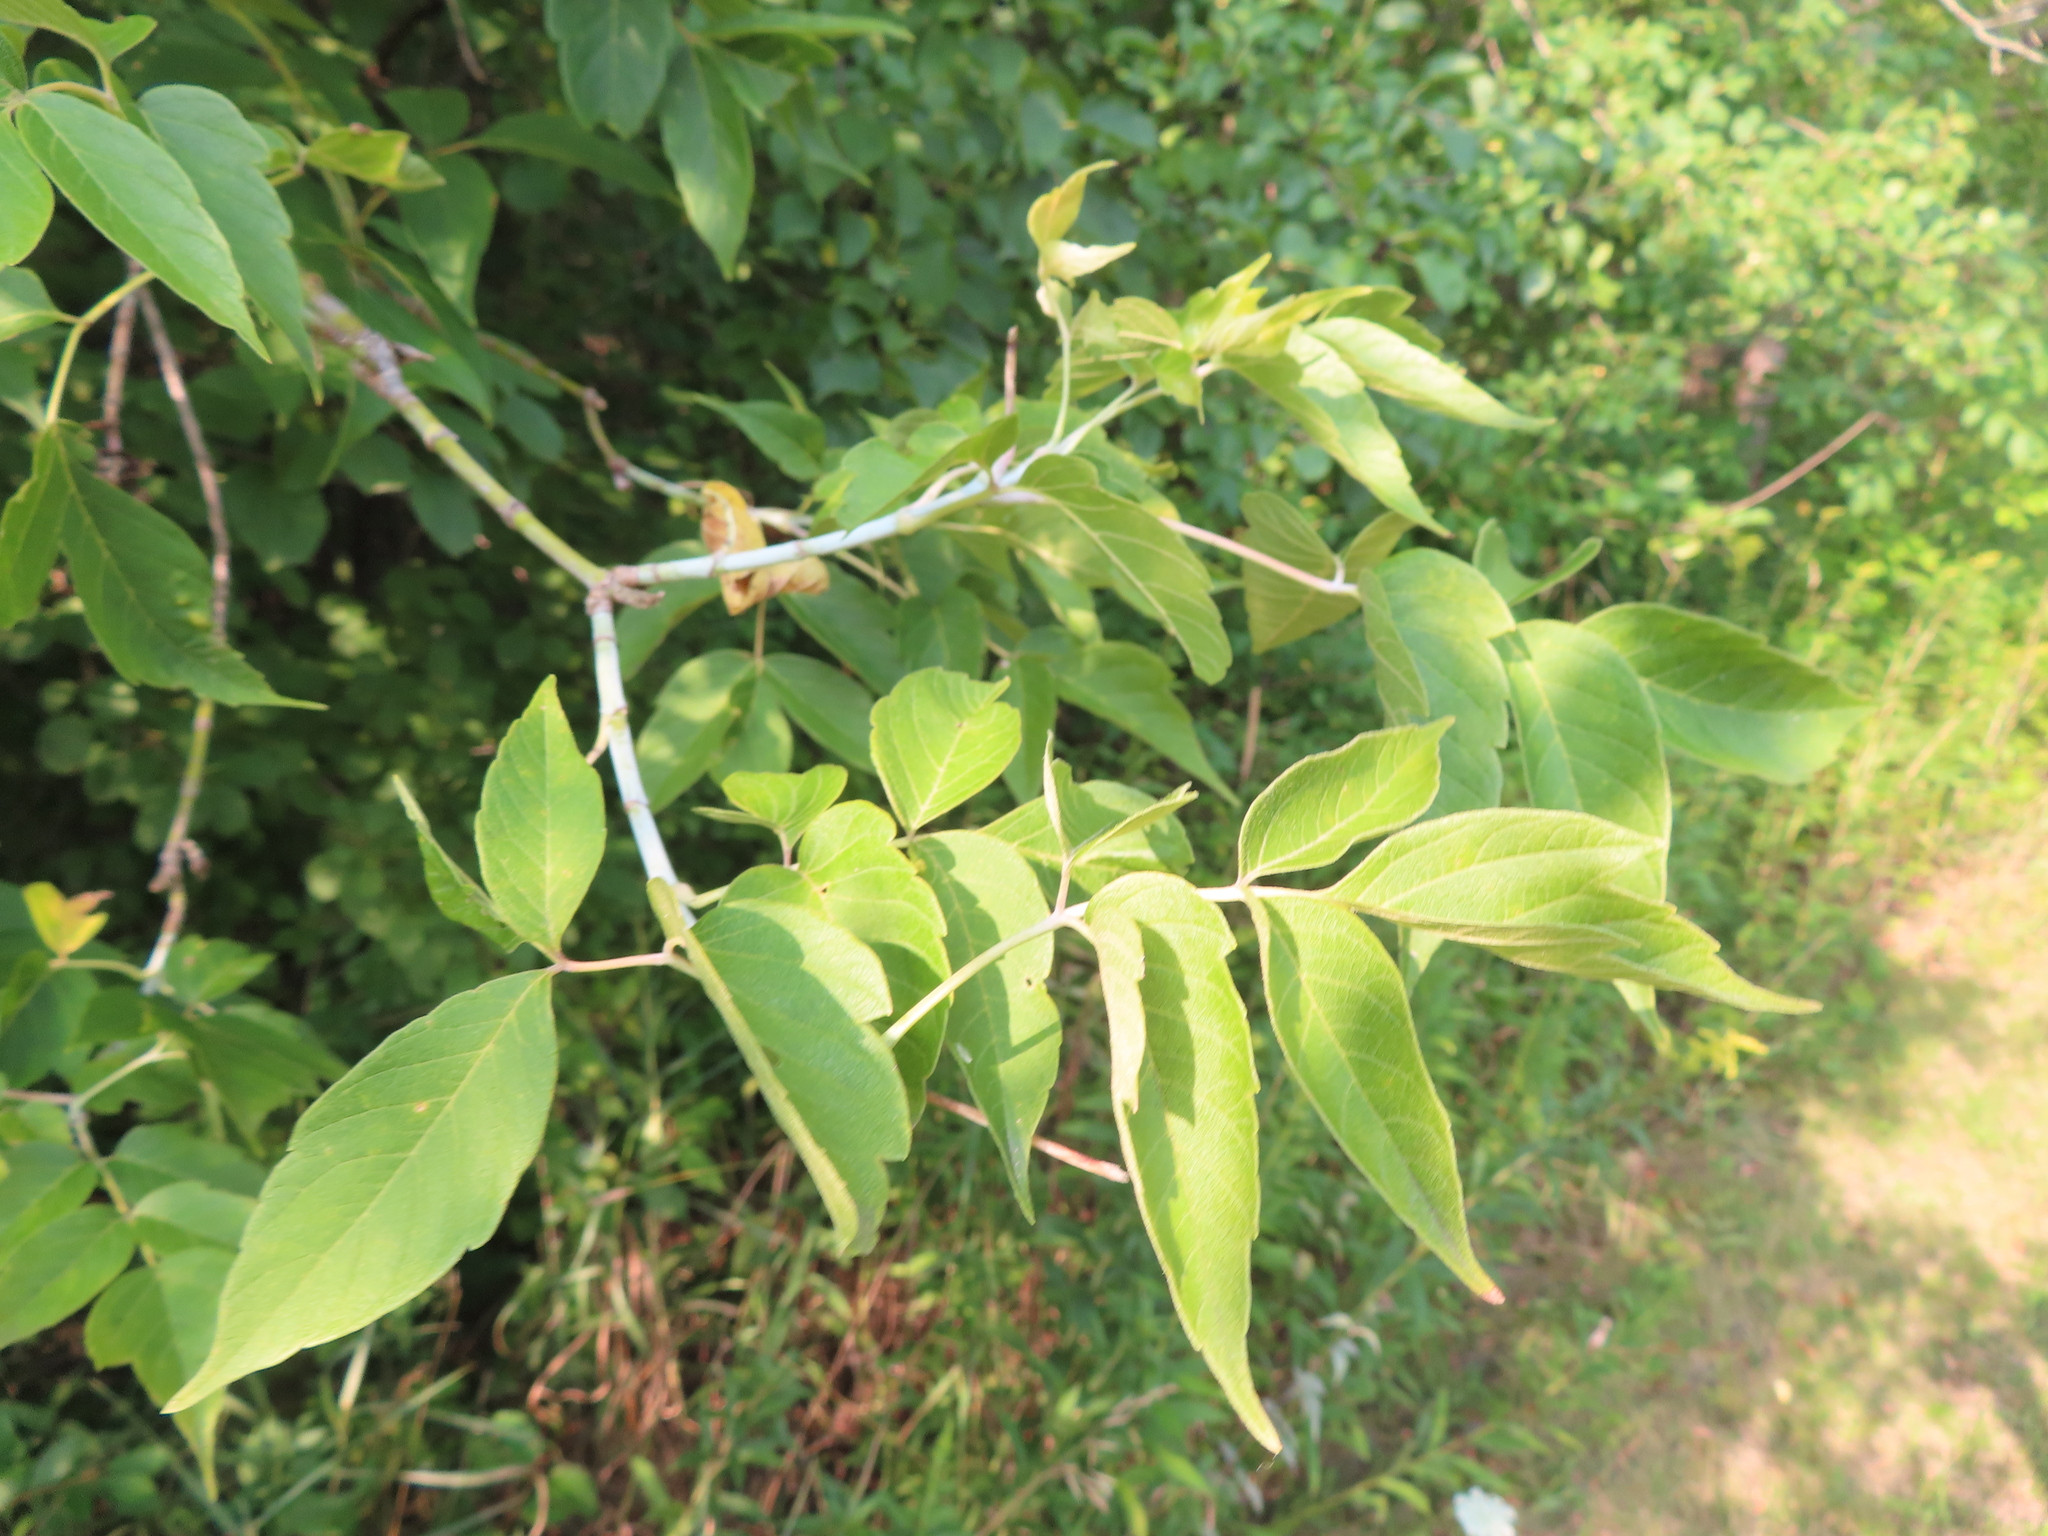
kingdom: Plantae
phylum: Tracheophyta
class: Magnoliopsida
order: Sapindales
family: Sapindaceae
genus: Acer
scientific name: Acer negundo
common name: Ashleaf maple
